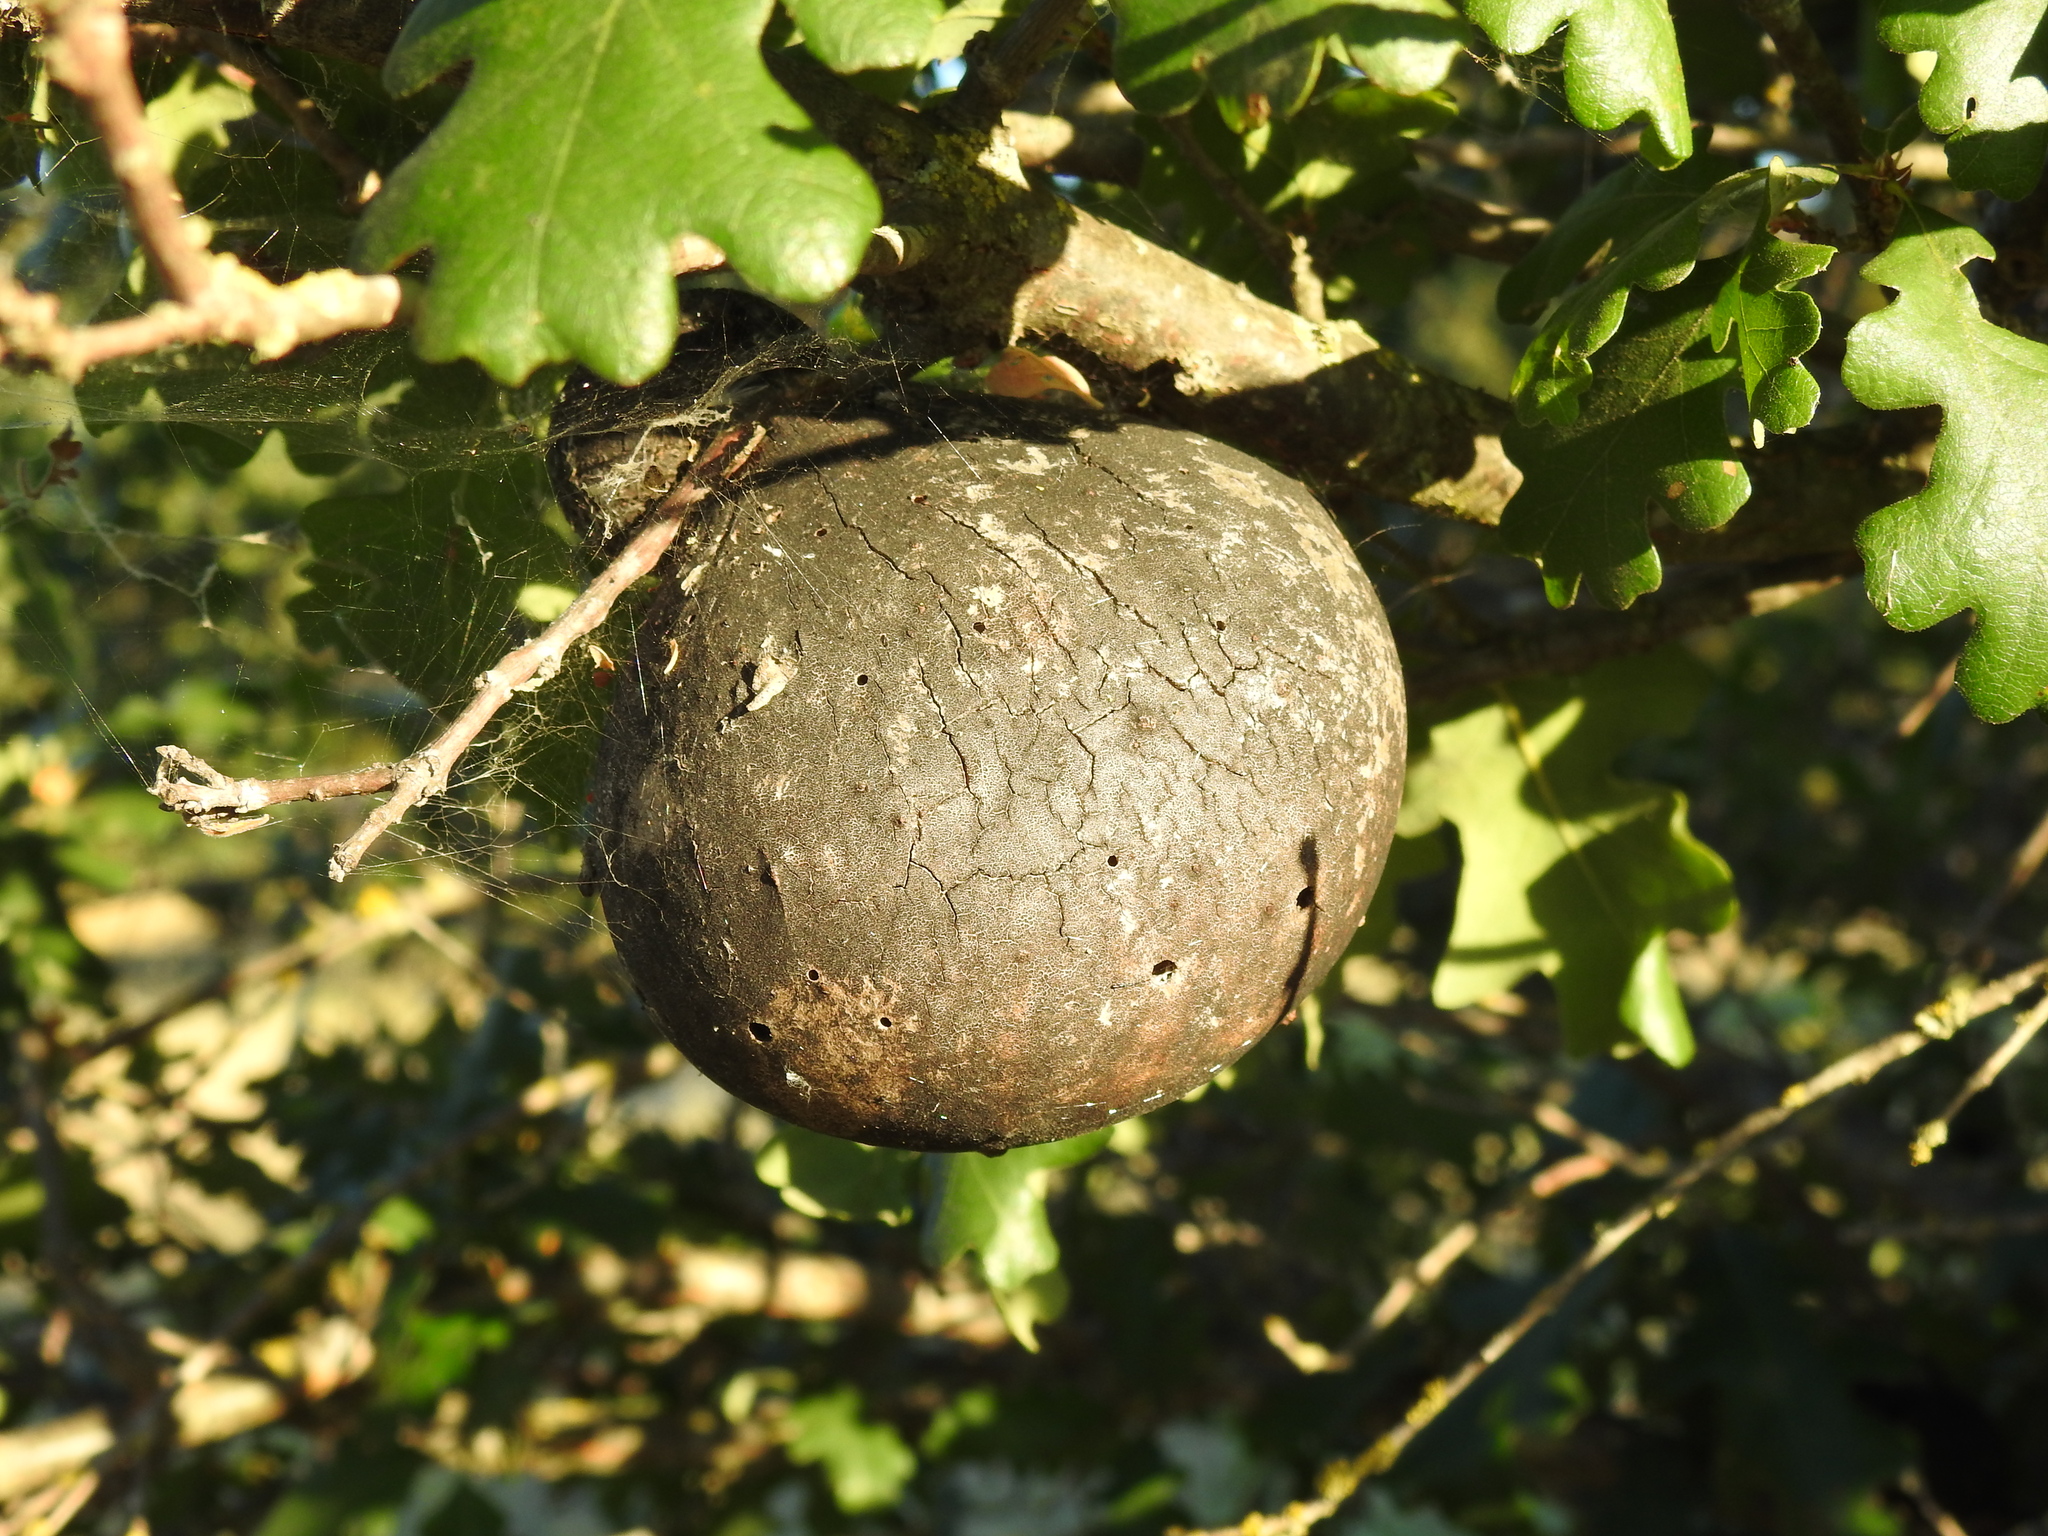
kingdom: Animalia
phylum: Arthropoda
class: Insecta
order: Hymenoptera
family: Cynipidae
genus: Andricus
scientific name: Andricus quercuscalifornicus
